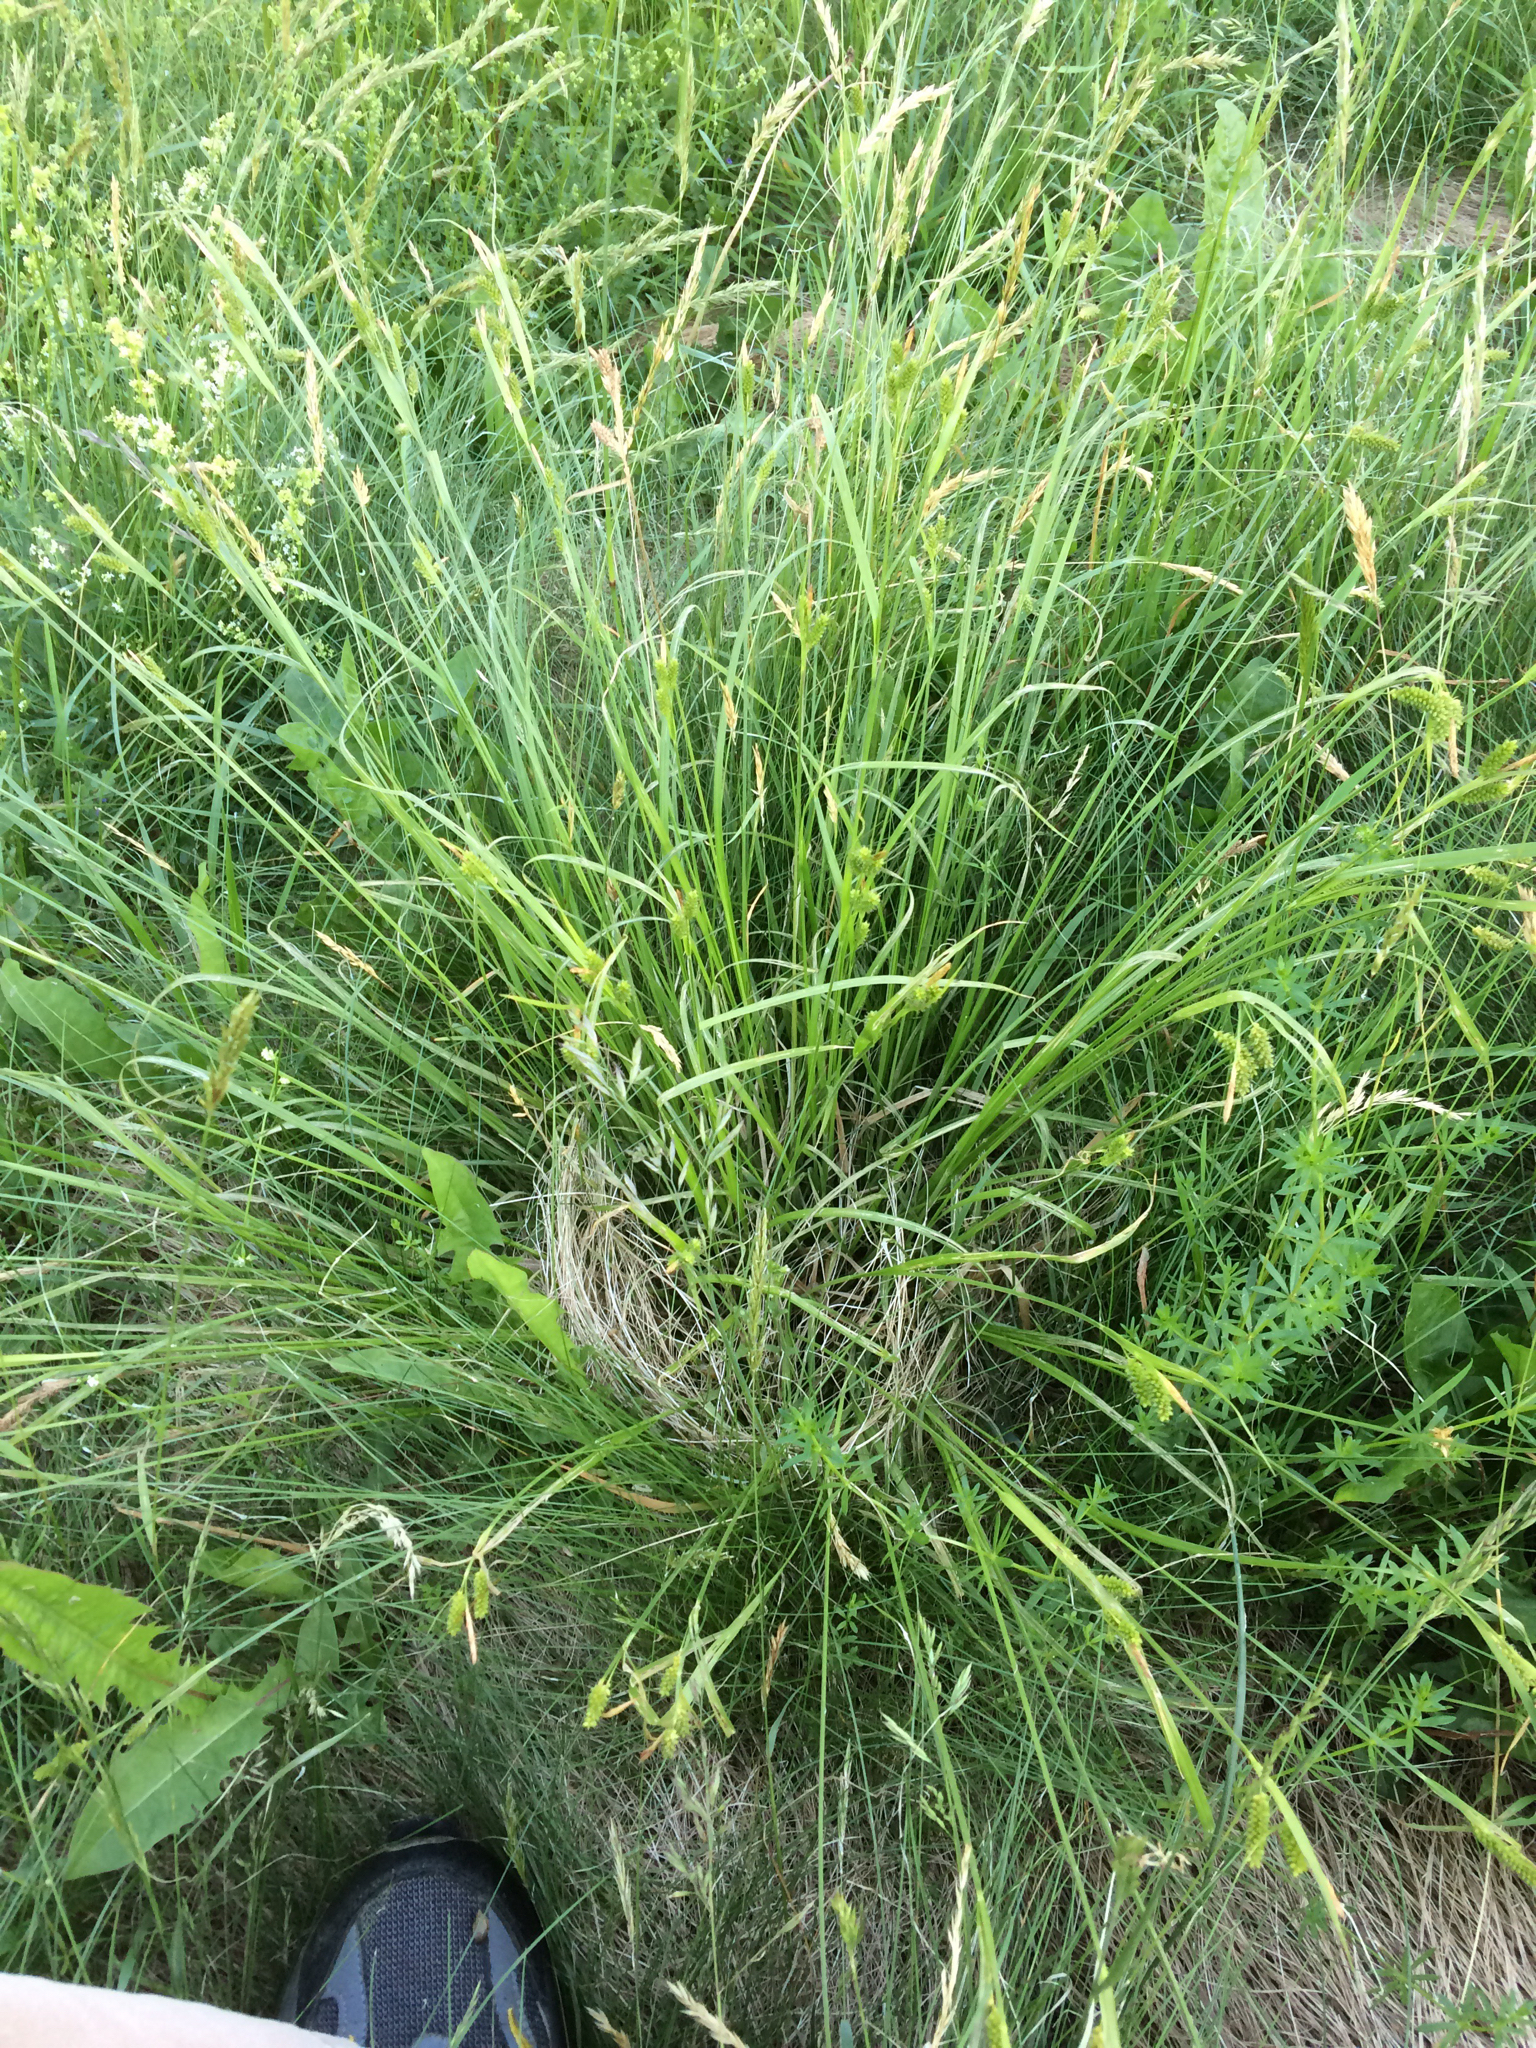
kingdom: Plantae
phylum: Tracheophyta
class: Liliopsida
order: Poales
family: Cyperaceae
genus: Carex
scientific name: Carex pallescens
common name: Pale sedge
